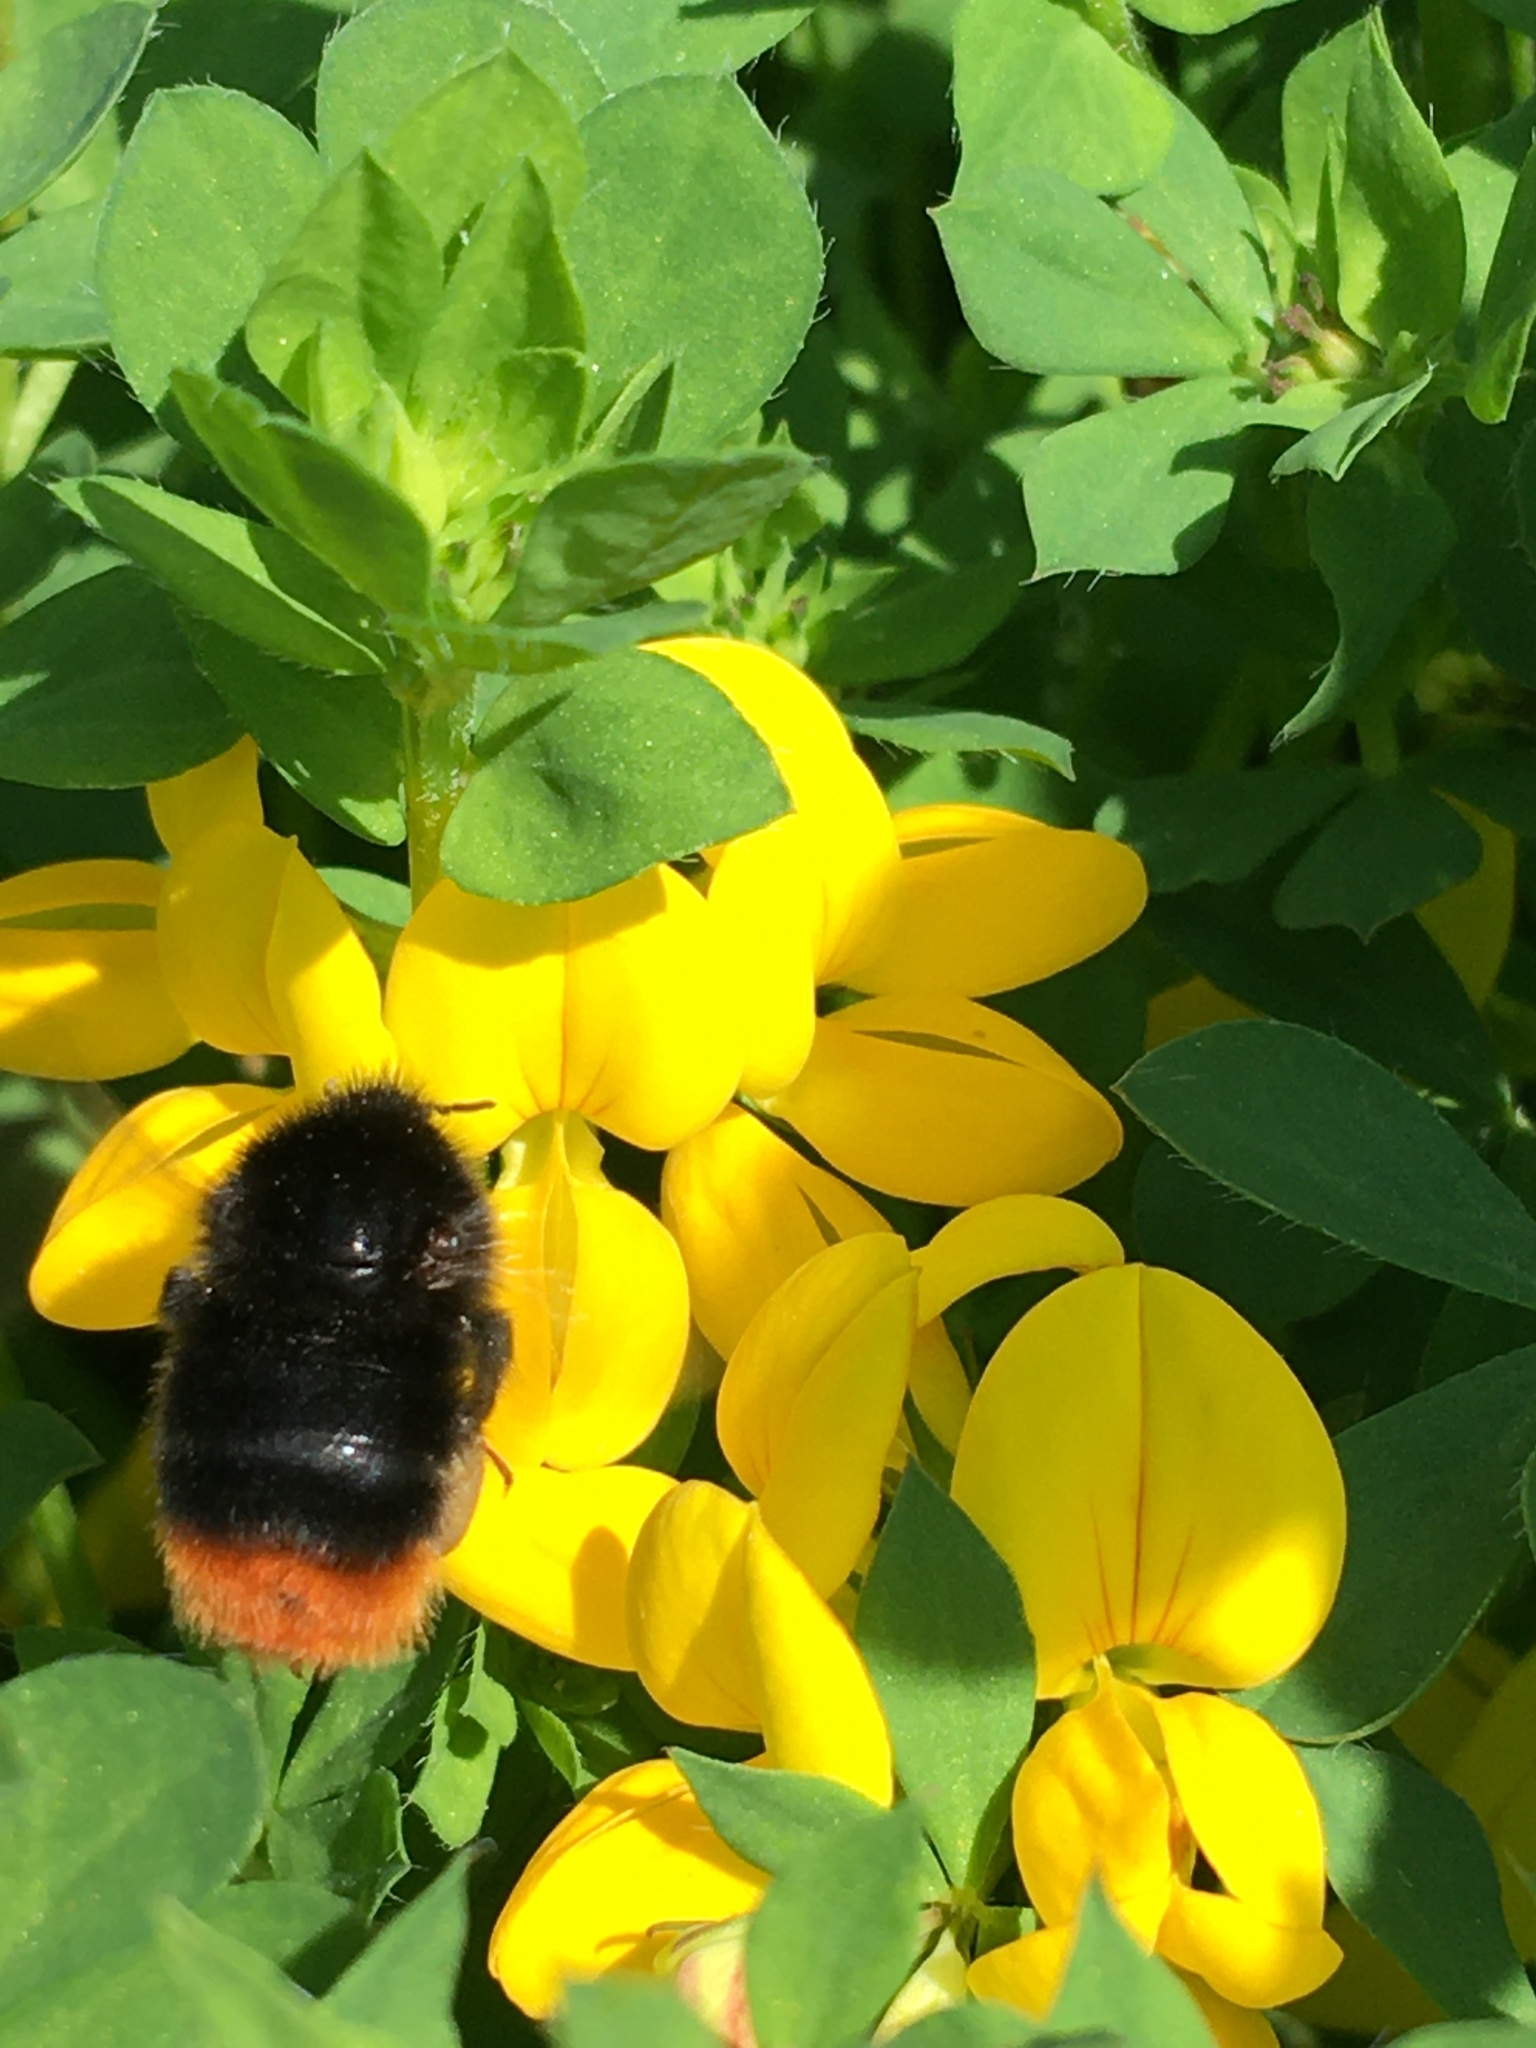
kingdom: Animalia
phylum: Arthropoda
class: Insecta
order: Hymenoptera
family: Apidae
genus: Bombus
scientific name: Bombus lapidarius
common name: Large red-tailed humble-bee
